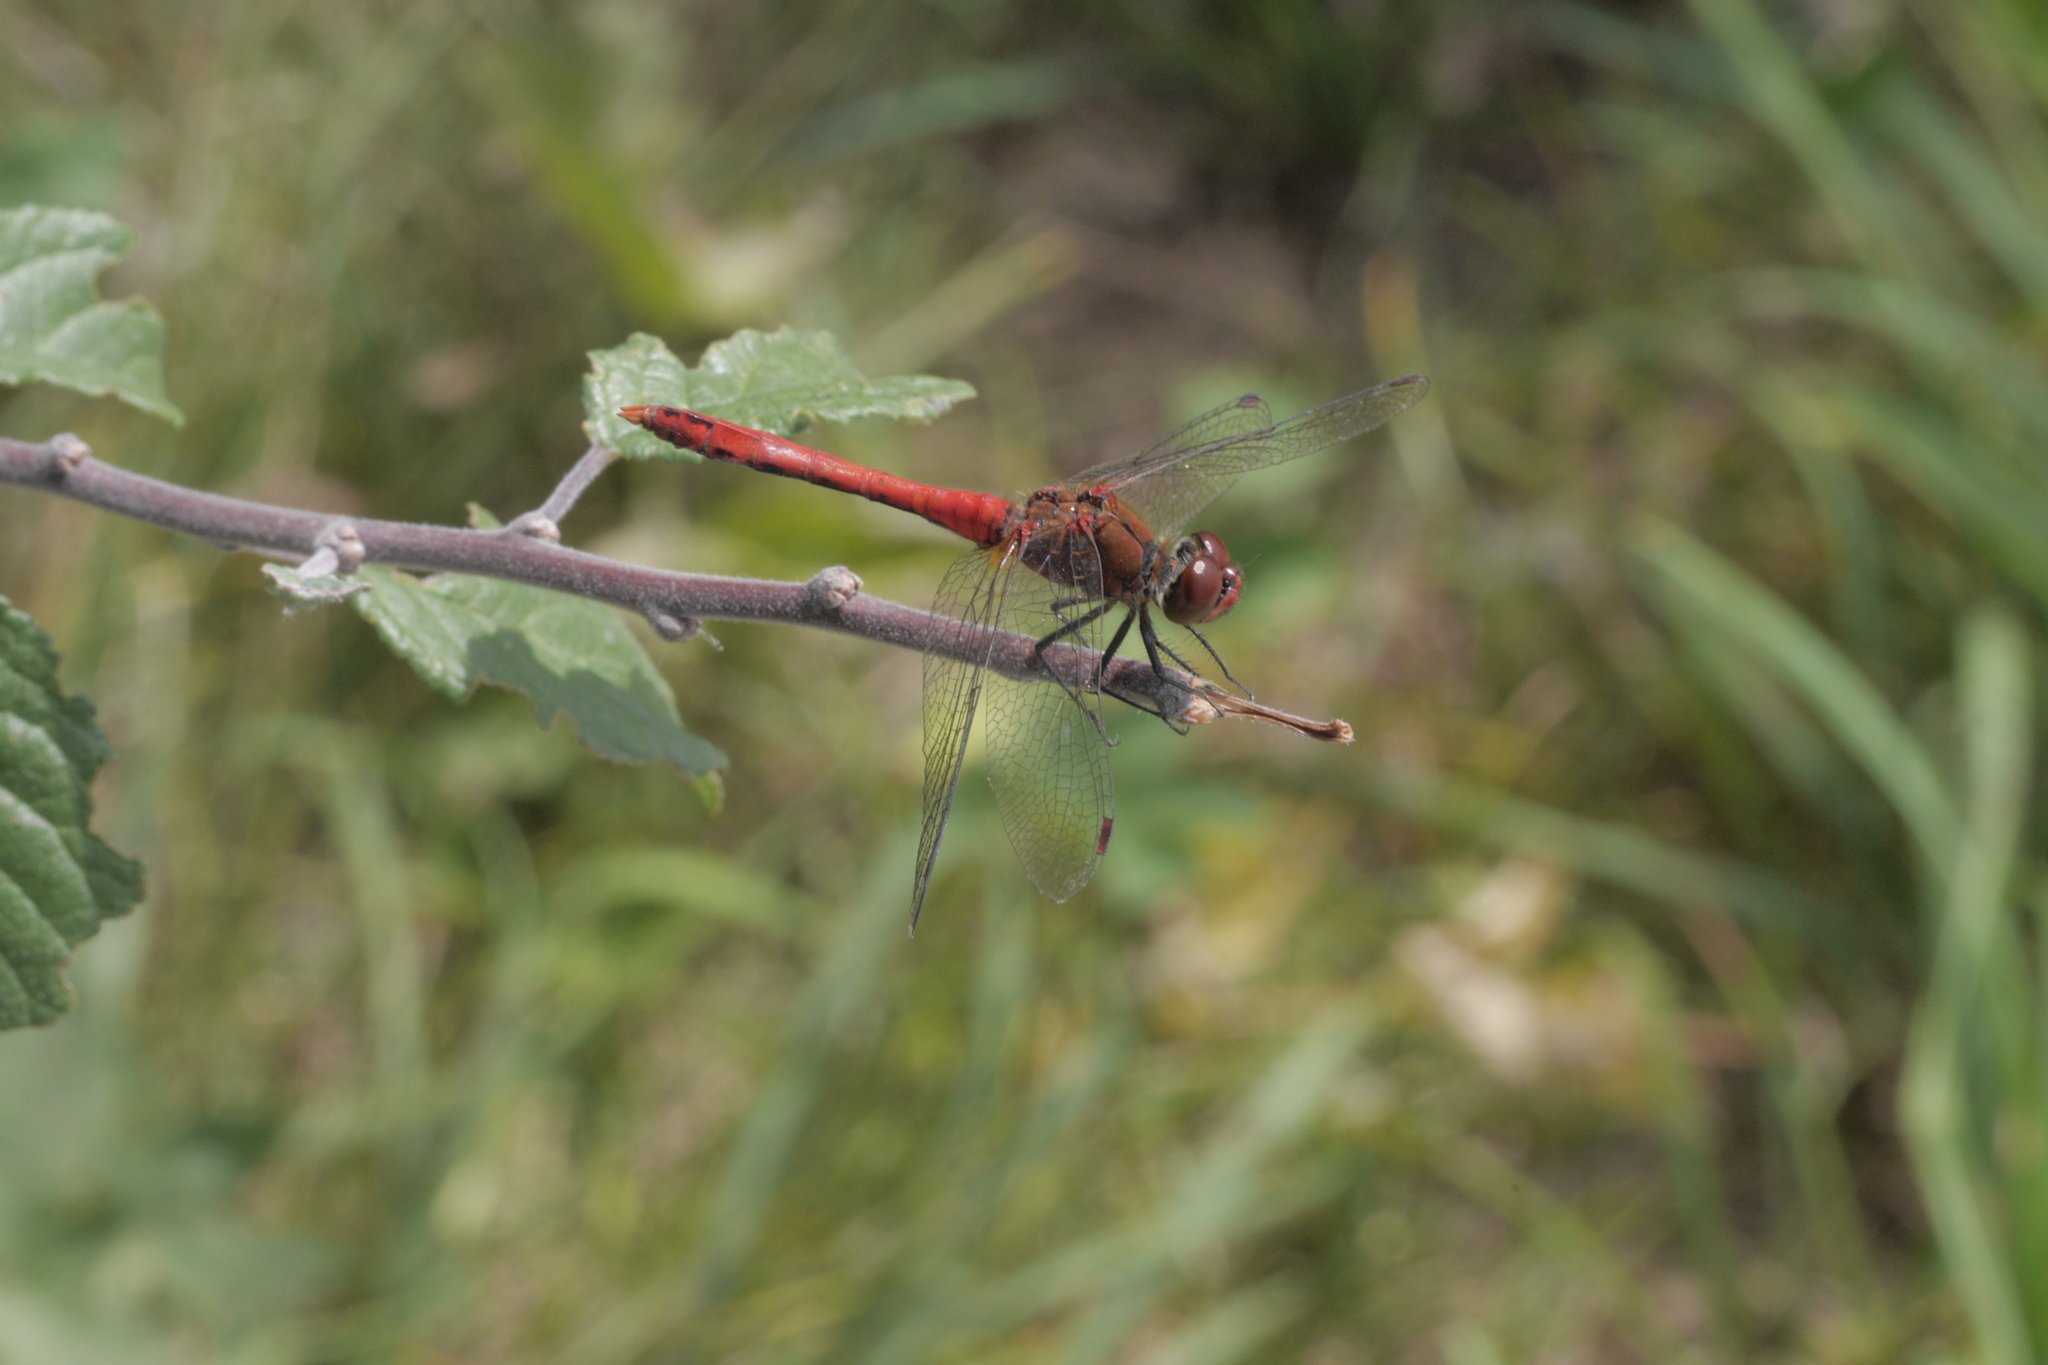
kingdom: Animalia
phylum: Arthropoda
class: Insecta
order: Odonata
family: Libellulidae
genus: Sympetrum
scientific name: Sympetrum sanguineum
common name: Ruddy darter
